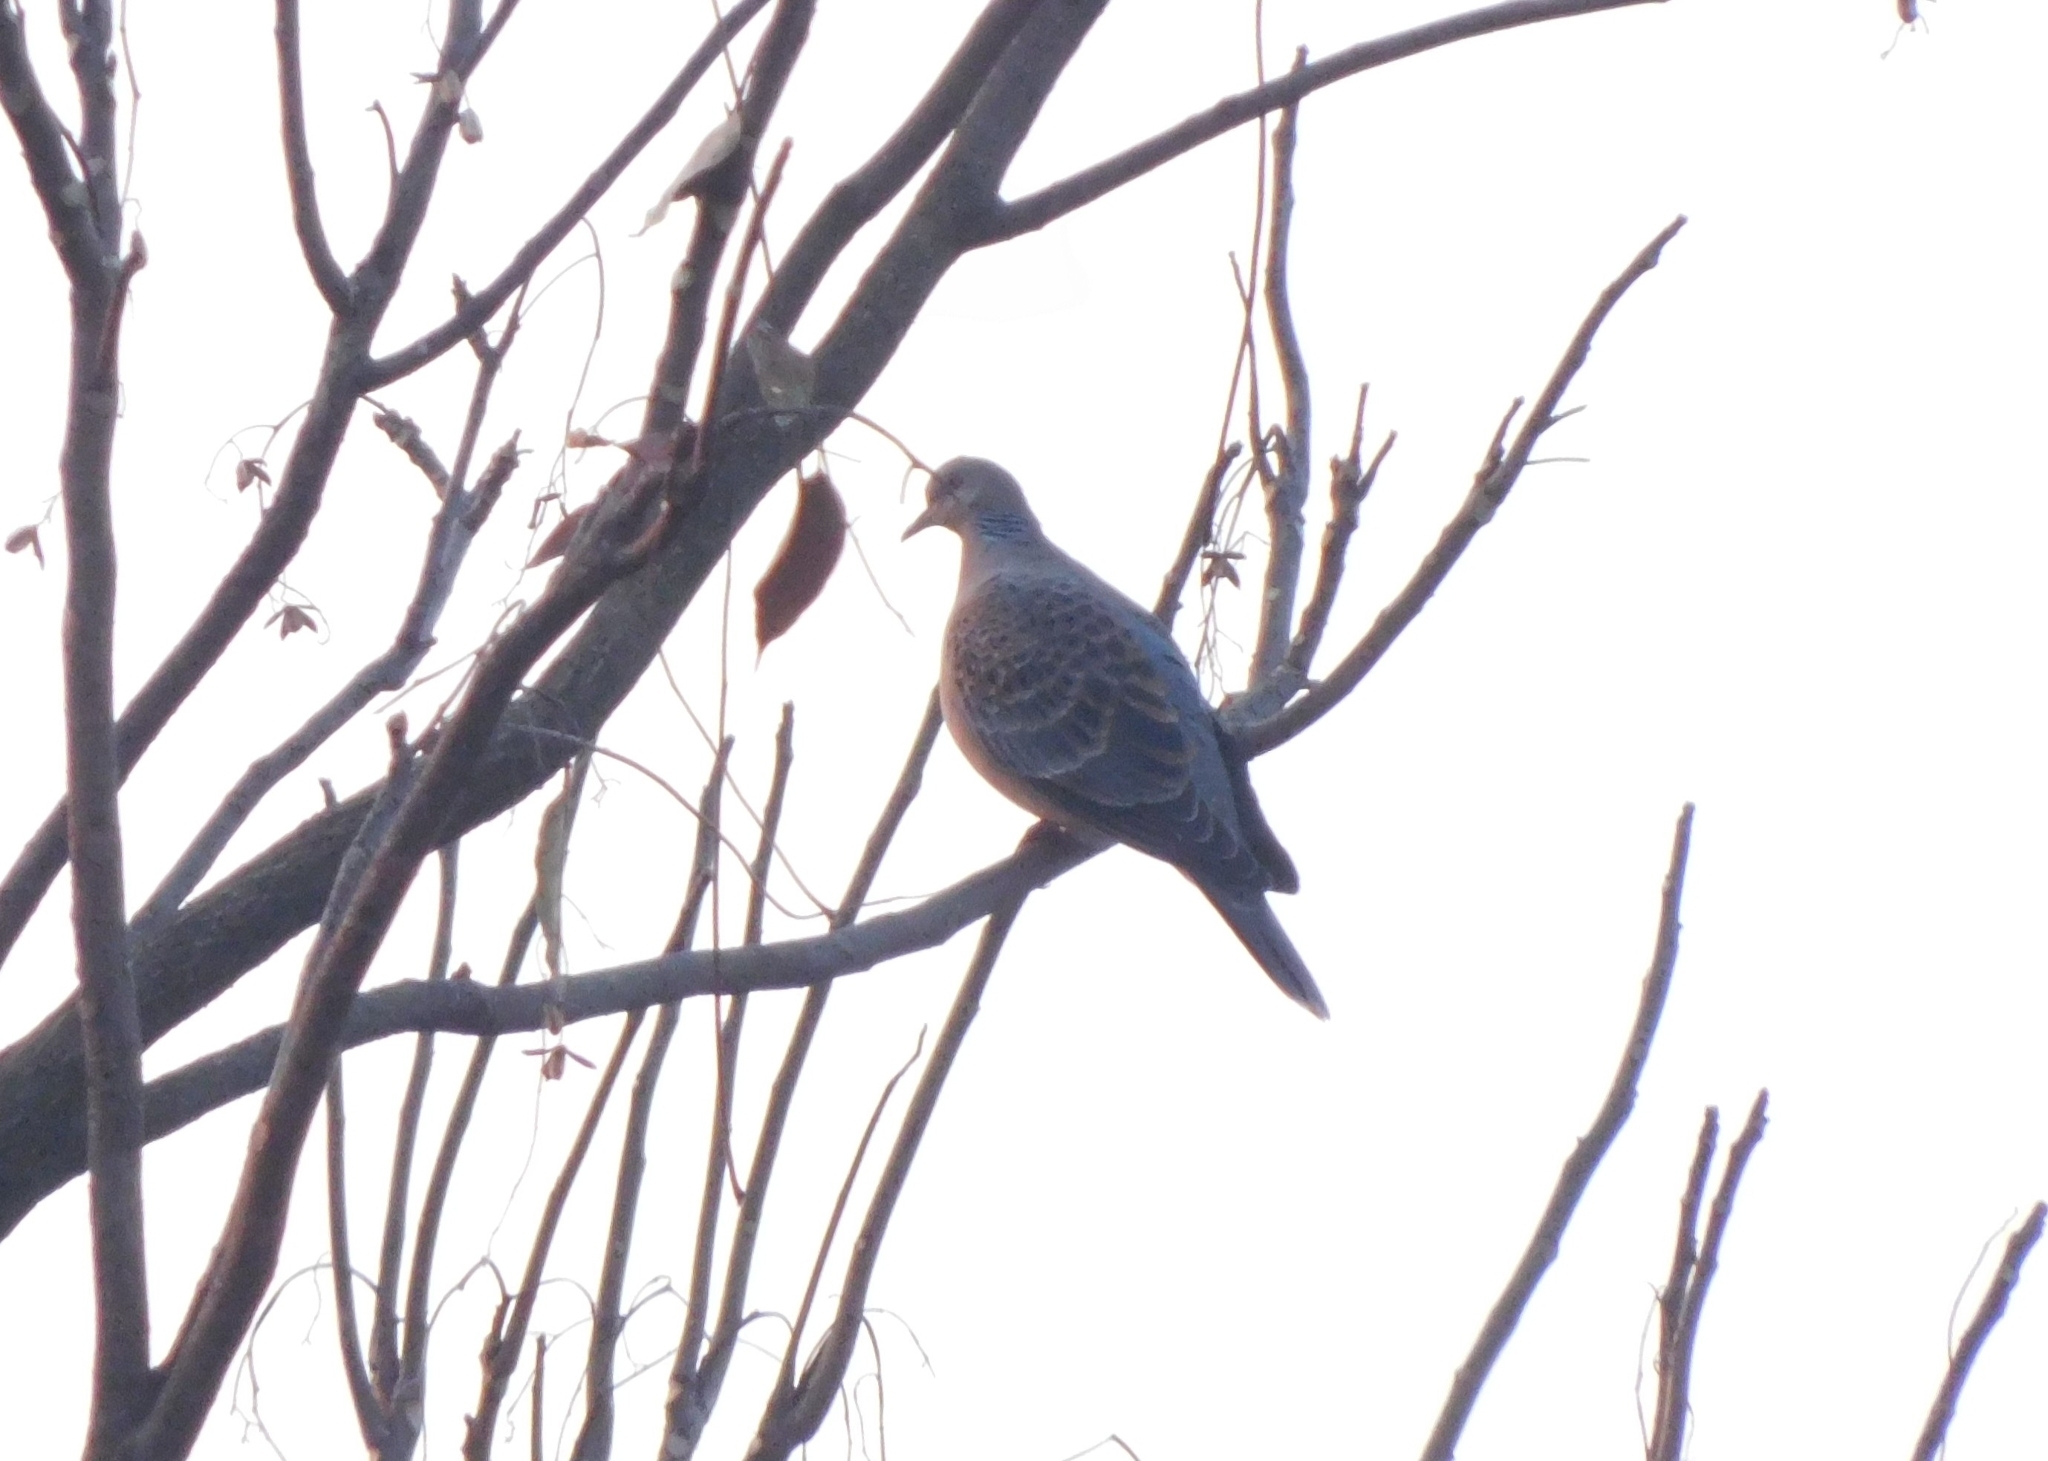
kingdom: Animalia
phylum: Chordata
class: Aves
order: Columbiformes
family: Columbidae
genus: Streptopelia
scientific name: Streptopelia orientalis
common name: Oriental turtle dove
